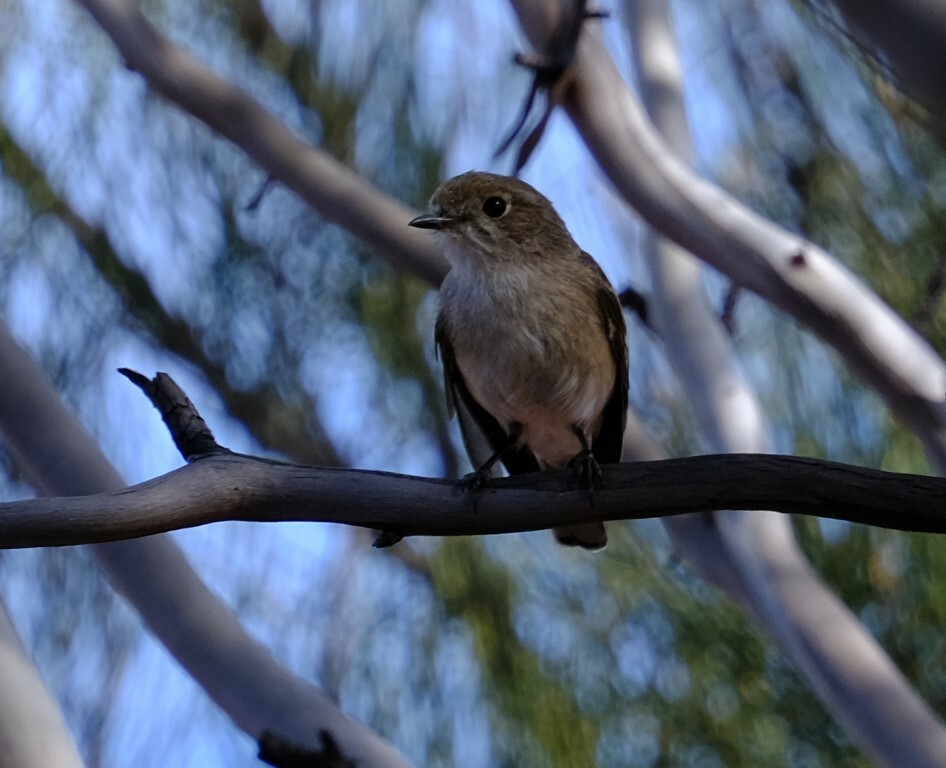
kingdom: Animalia
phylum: Chordata
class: Aves
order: Passeriformes
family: Petroicidae
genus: Petroica
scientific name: Petroica goodenovii
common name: Red-capped robin
